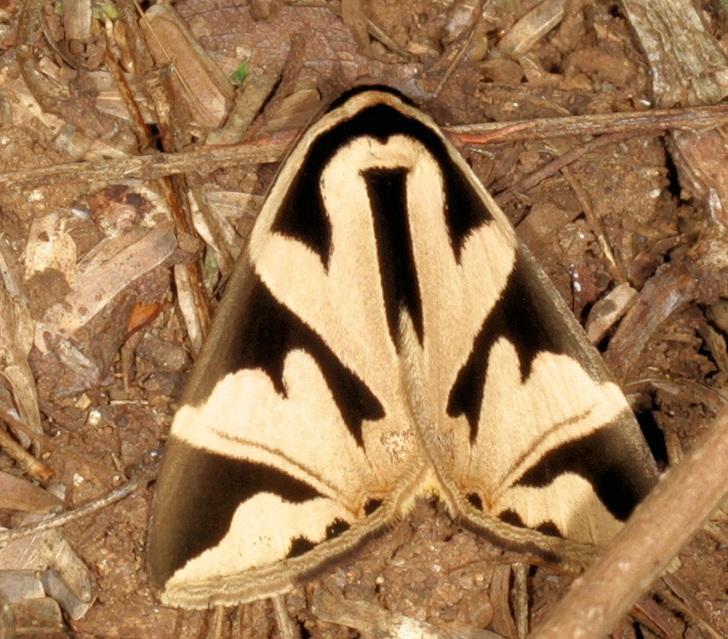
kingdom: Animalia
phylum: Arthropoda
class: Insecta
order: Lepidoptera
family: Erebidae
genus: Attatha
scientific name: Attatha attathoides
